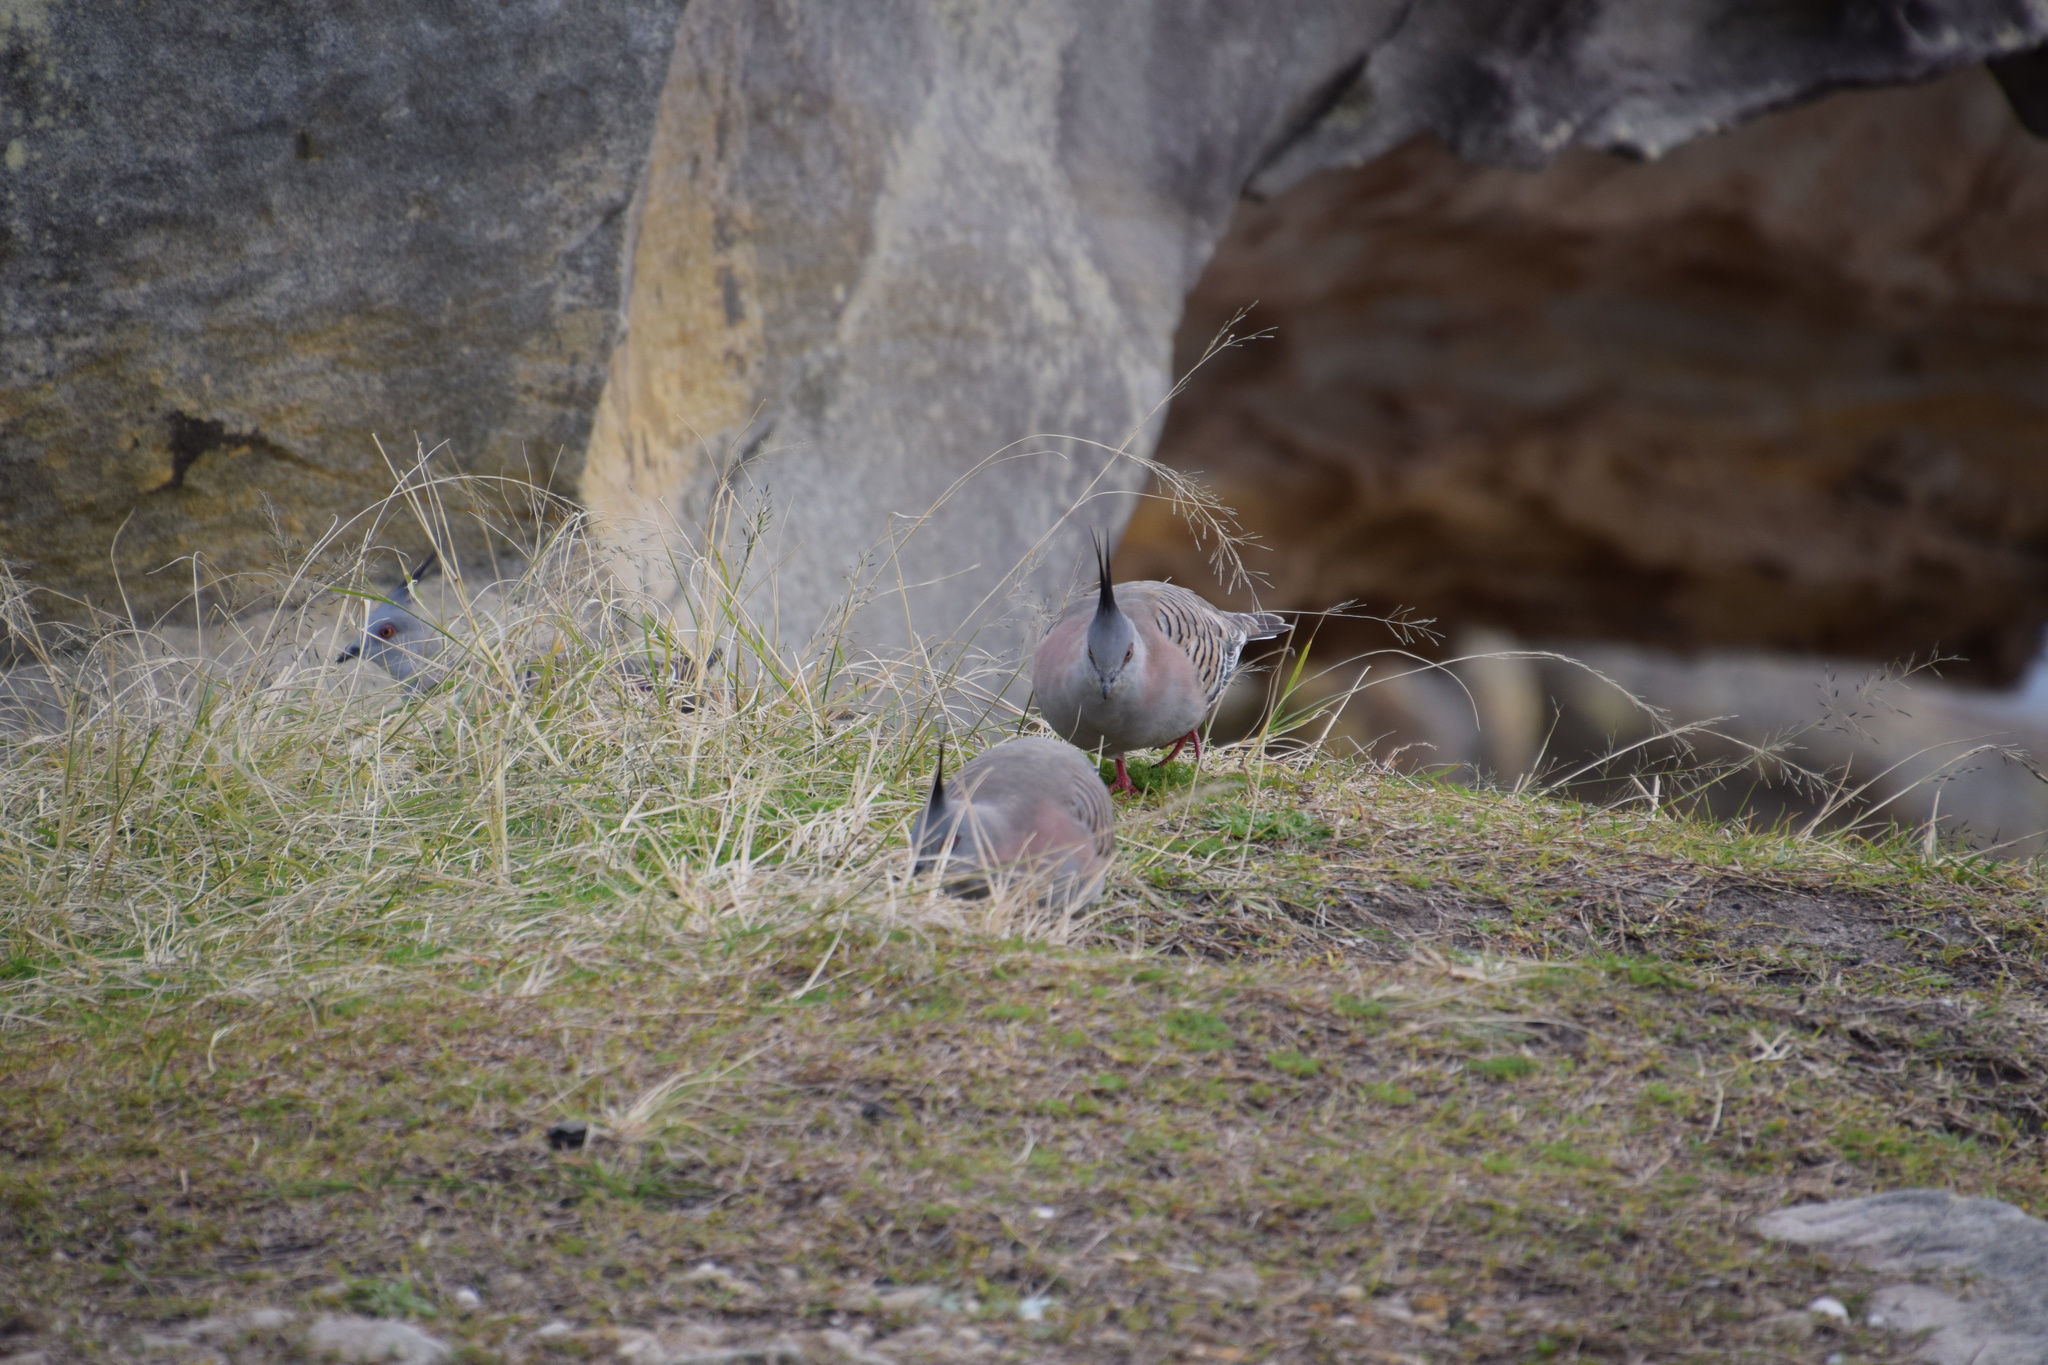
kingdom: Animalia
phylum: Chordata
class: Aves
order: Columbiformes
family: Columbidae
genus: Ocyphaps
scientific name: Ocyphaps lophotes
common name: Crested pigeon
